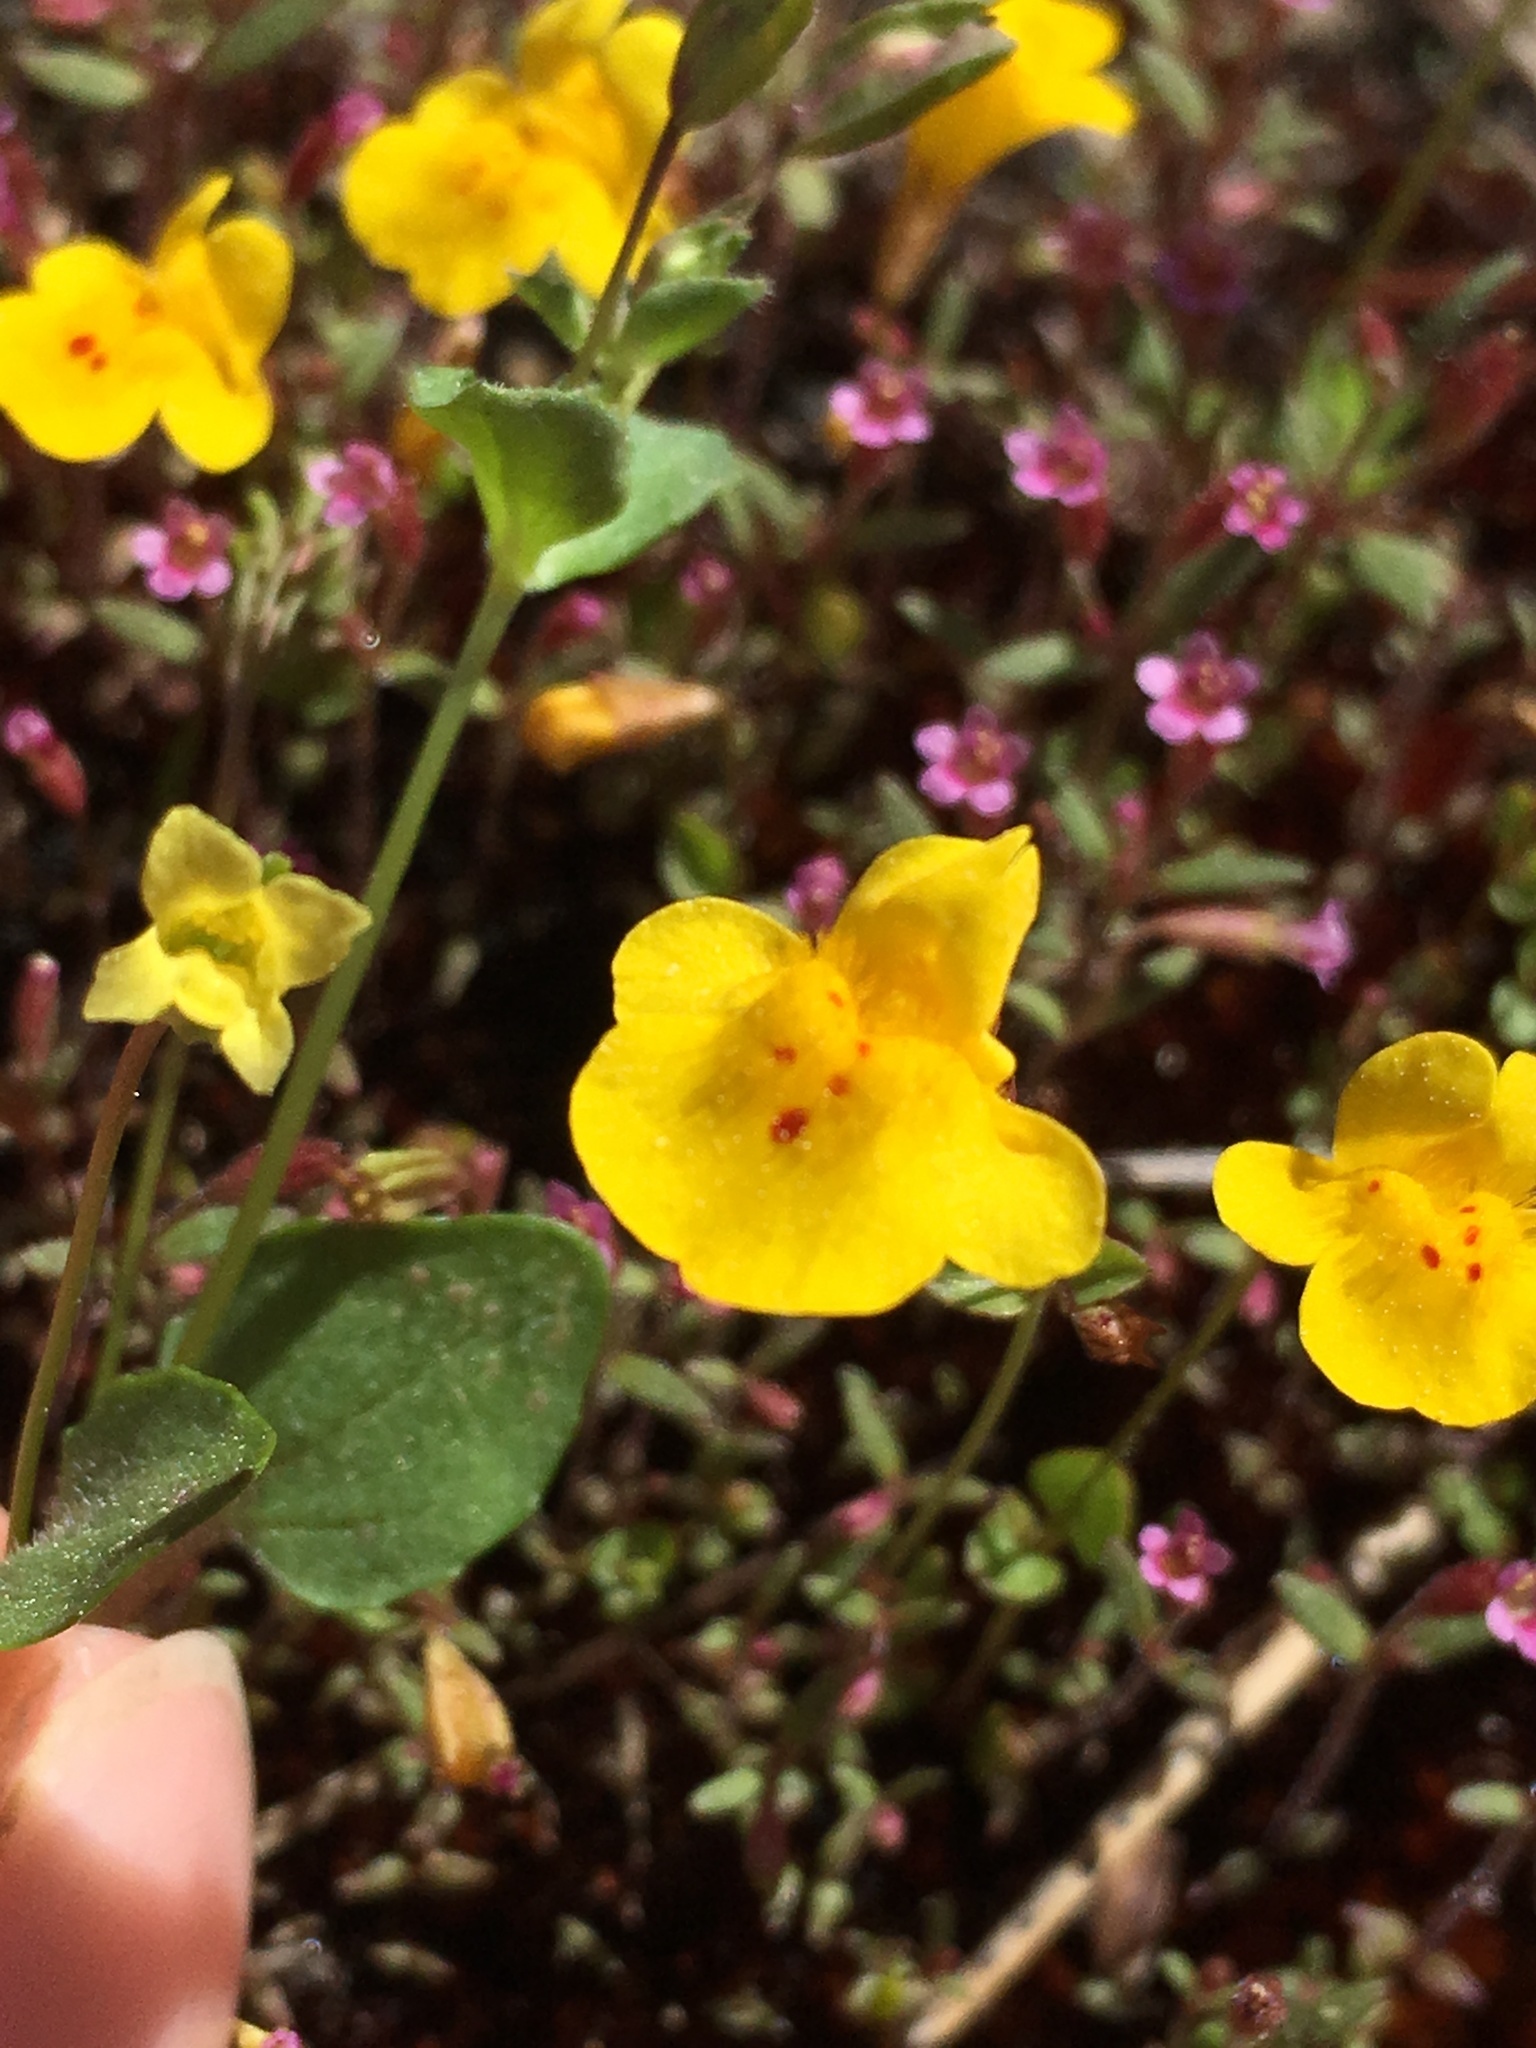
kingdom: Plantae
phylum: Tracheophyta
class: Magnoliopsida
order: Lamiales
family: Phrymaceae
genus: Erythranthe
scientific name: Erythranthe guttata
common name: Monkeyflower
